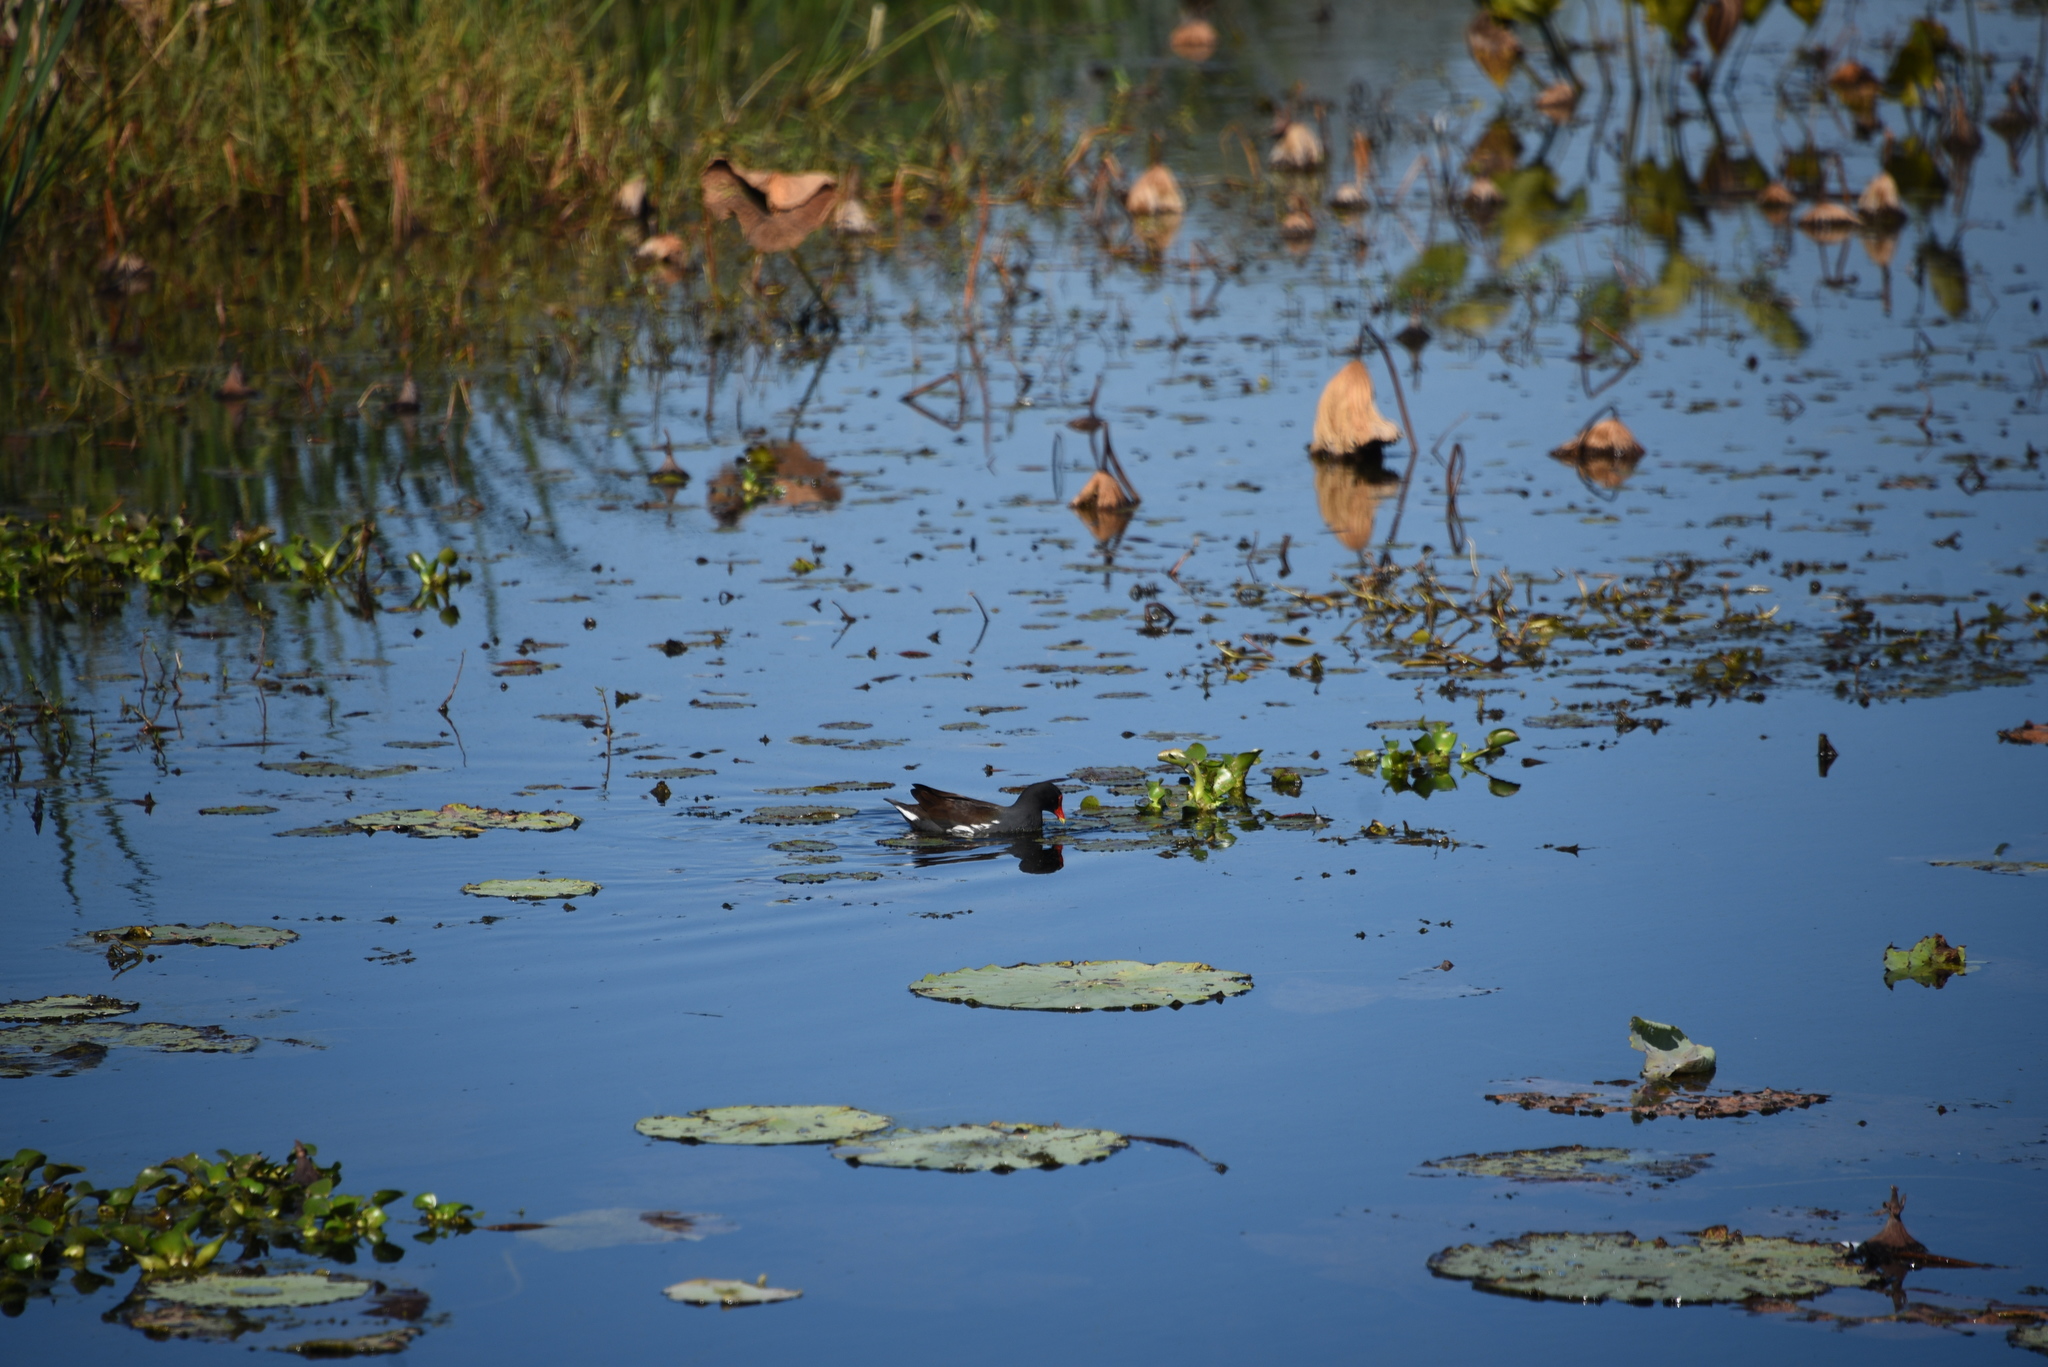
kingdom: Animalia
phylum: Chordata
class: Aves
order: Gruiformes
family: Rallidae
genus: Gallinula
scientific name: Gallinula chloropus
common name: Common moorhen
